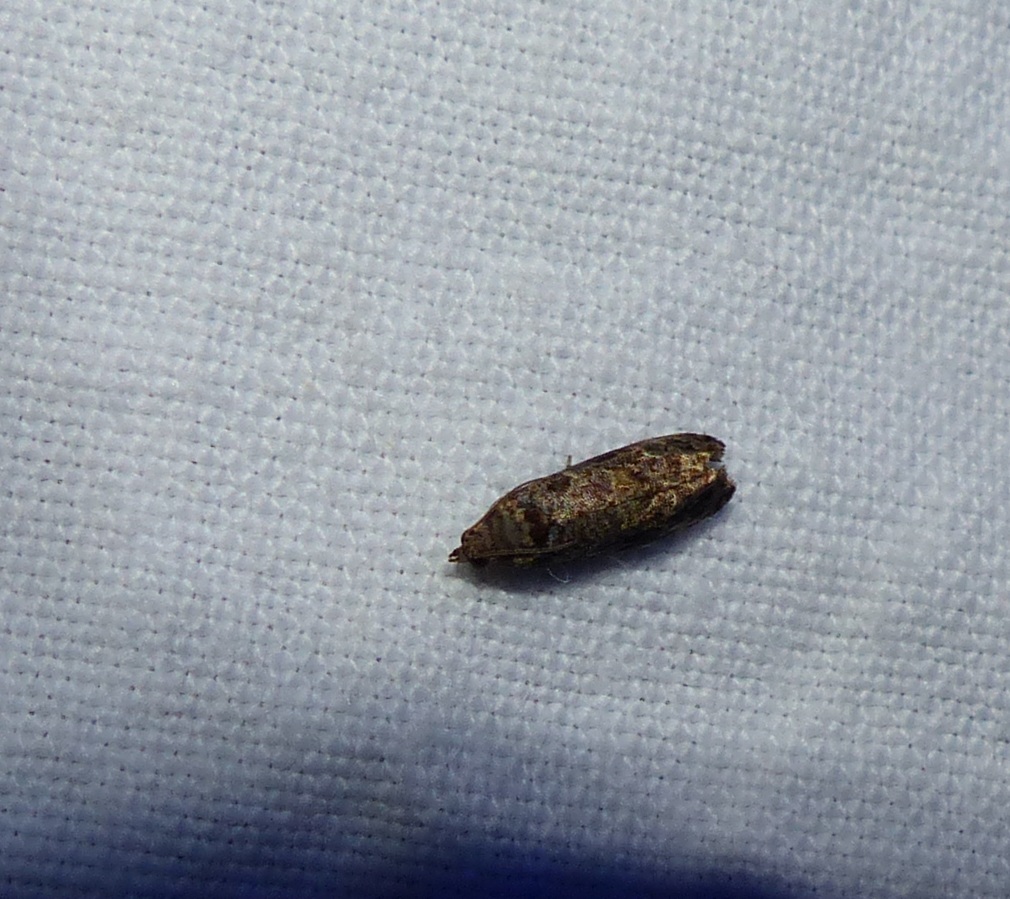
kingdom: Animalia
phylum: Arthropoda
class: Insecta
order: Lepidoptera
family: Tortricidae
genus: Endothenia
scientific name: Endothenia hebesana
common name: Verbena bud moth
